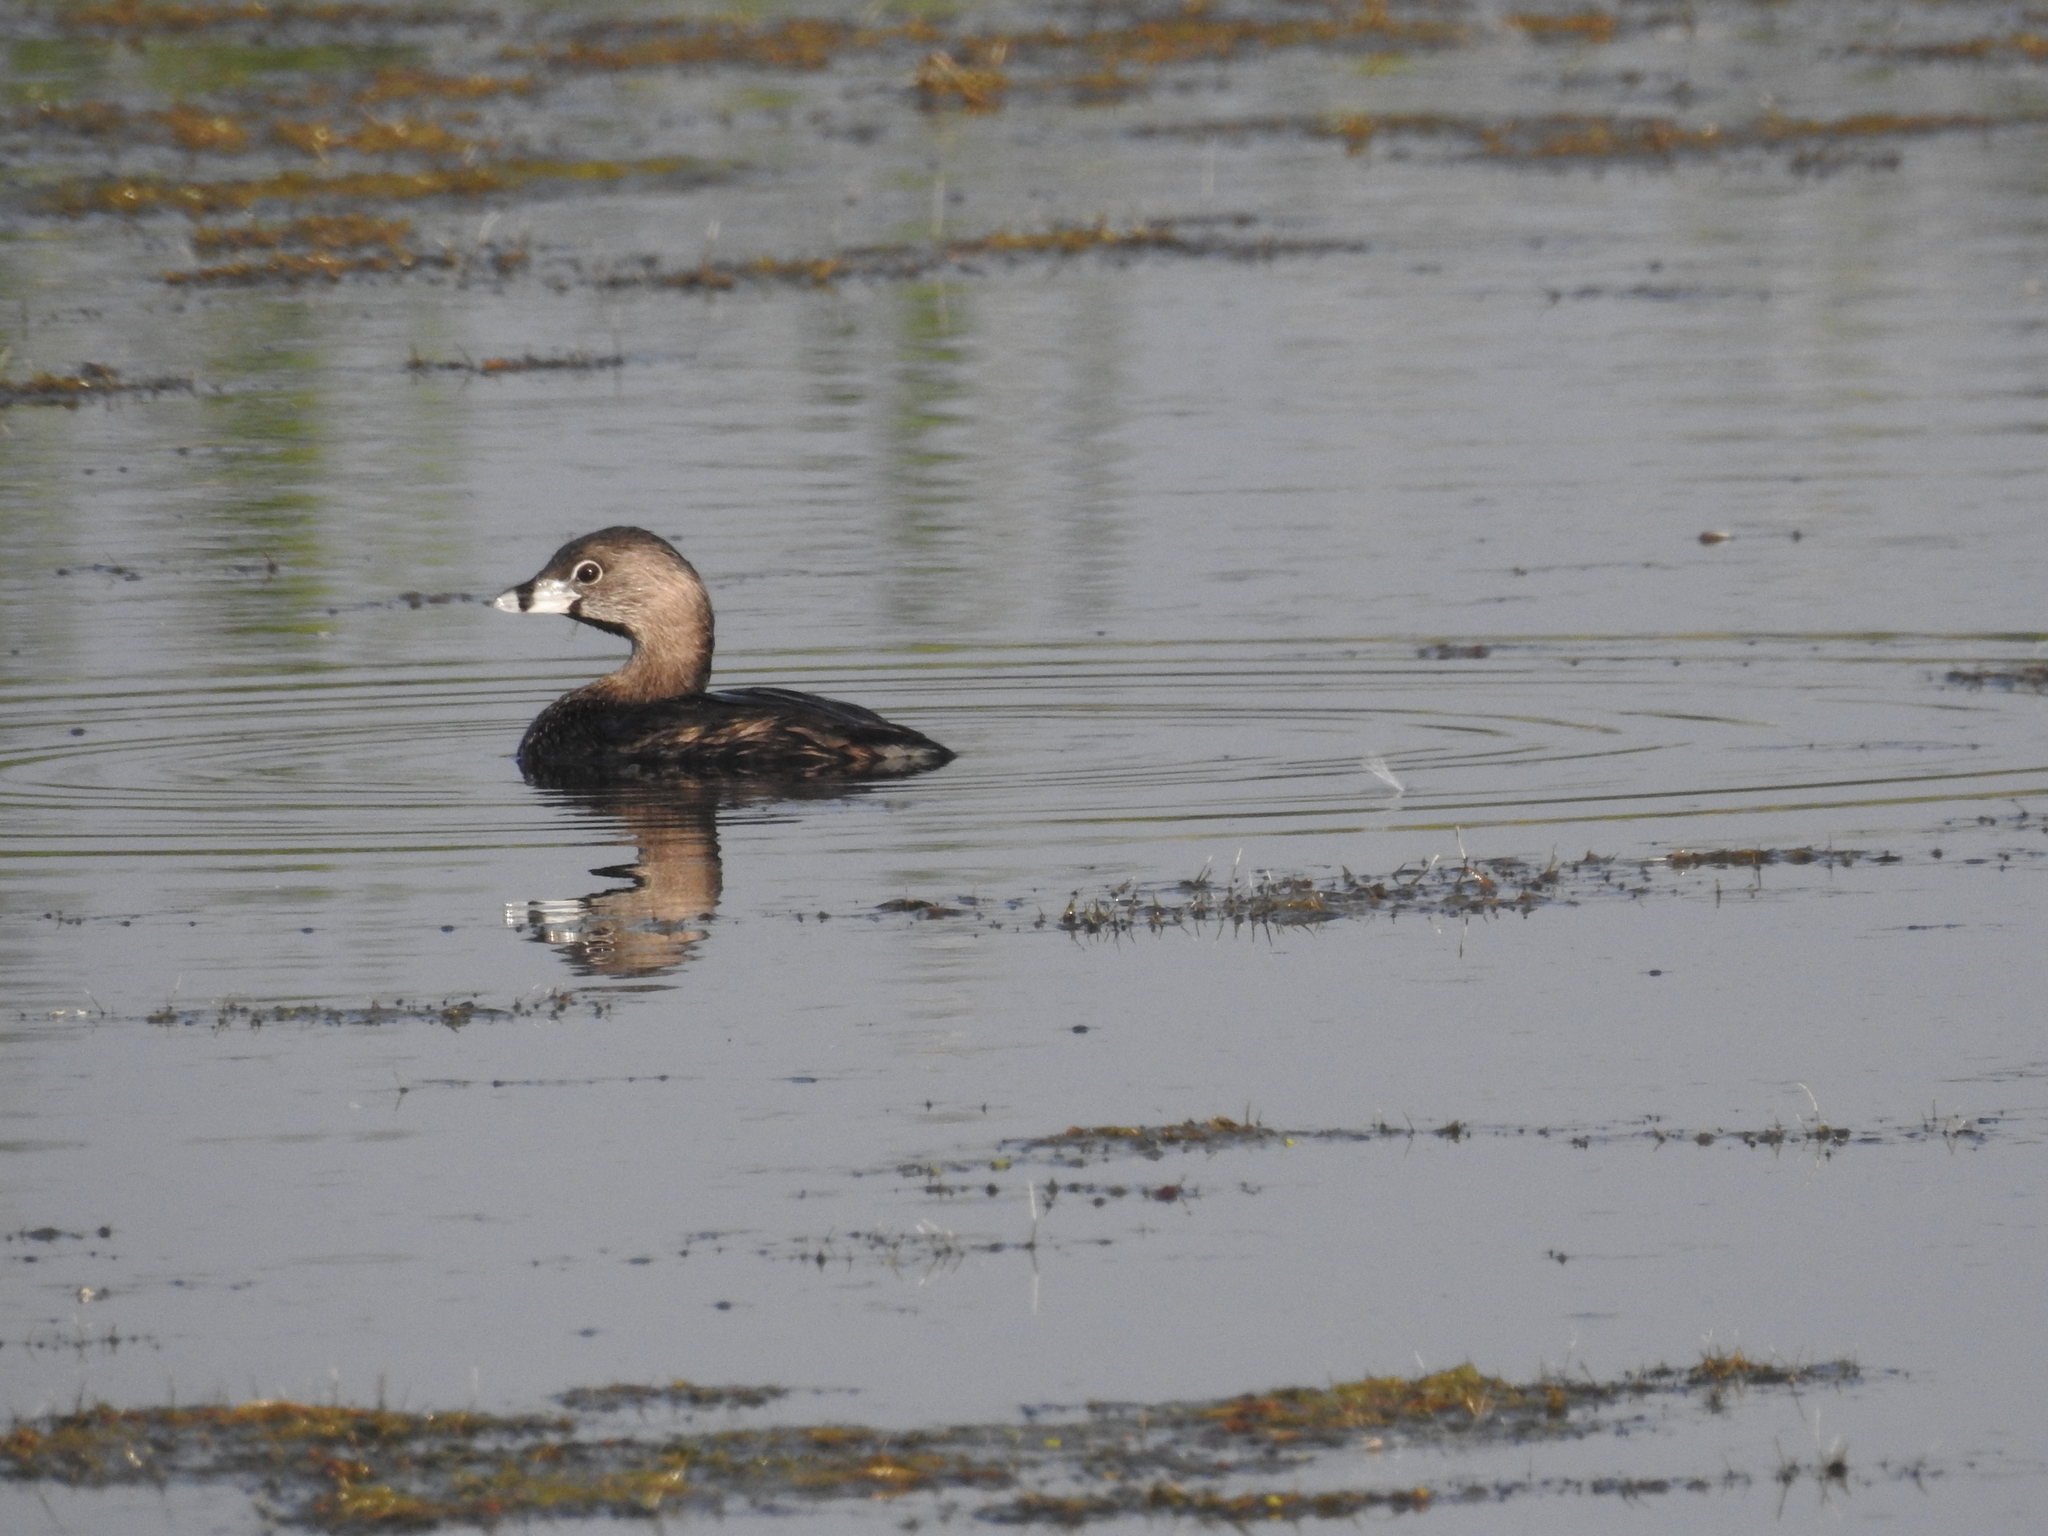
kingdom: Animalia
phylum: Chordata
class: Aves
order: Podicipediformes
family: Podicipedidae
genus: Podilymbus
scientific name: Podilymbus podiceps
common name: Pied-billed grebe
